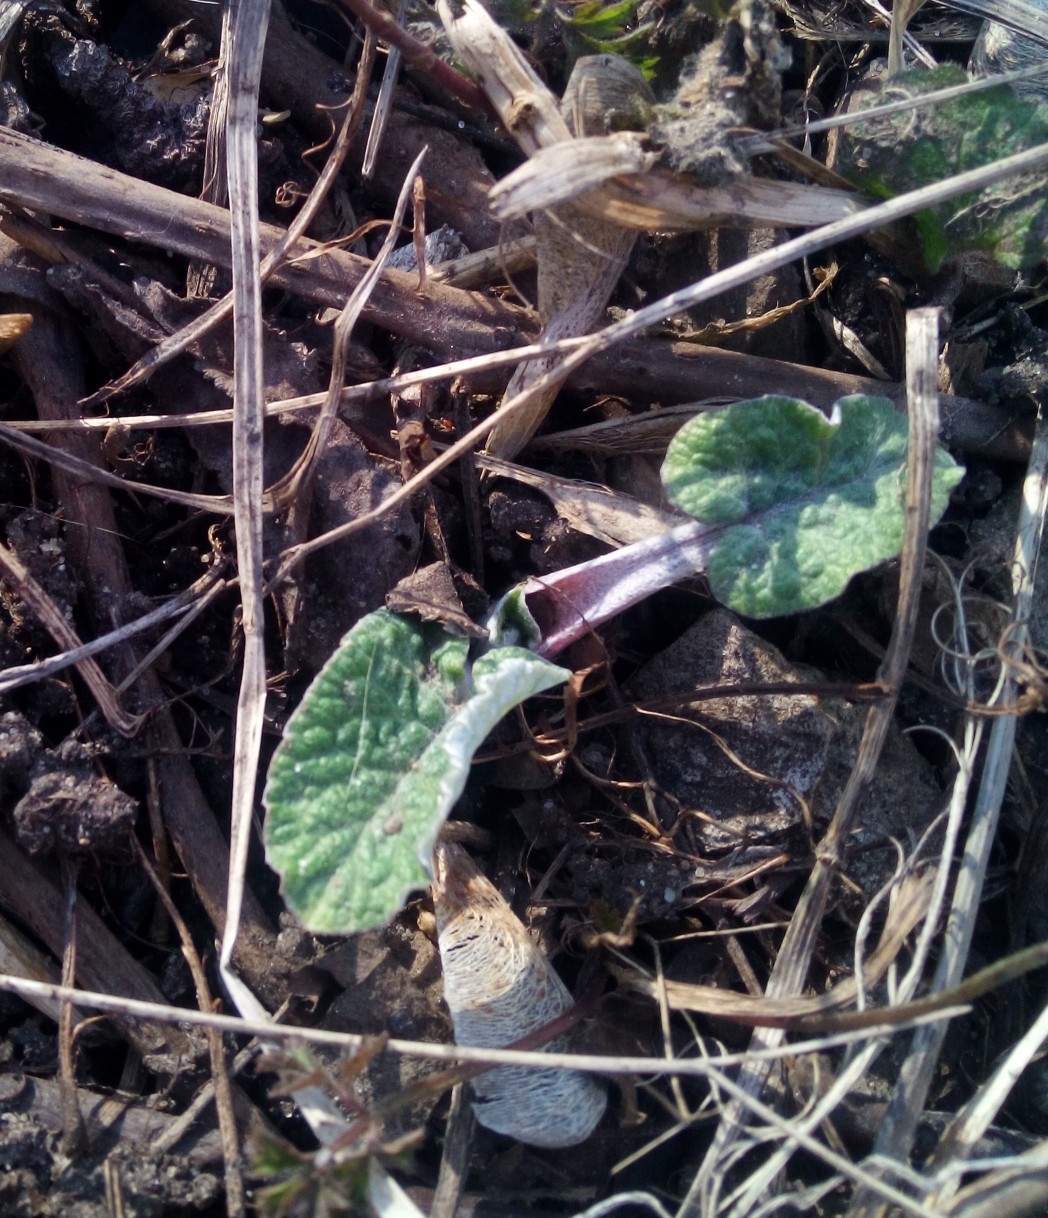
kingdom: Plantae
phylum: Tracheophyta
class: Magnoliopsida
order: Asterales
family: Asteraceae
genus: Arctium
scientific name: Arctium
